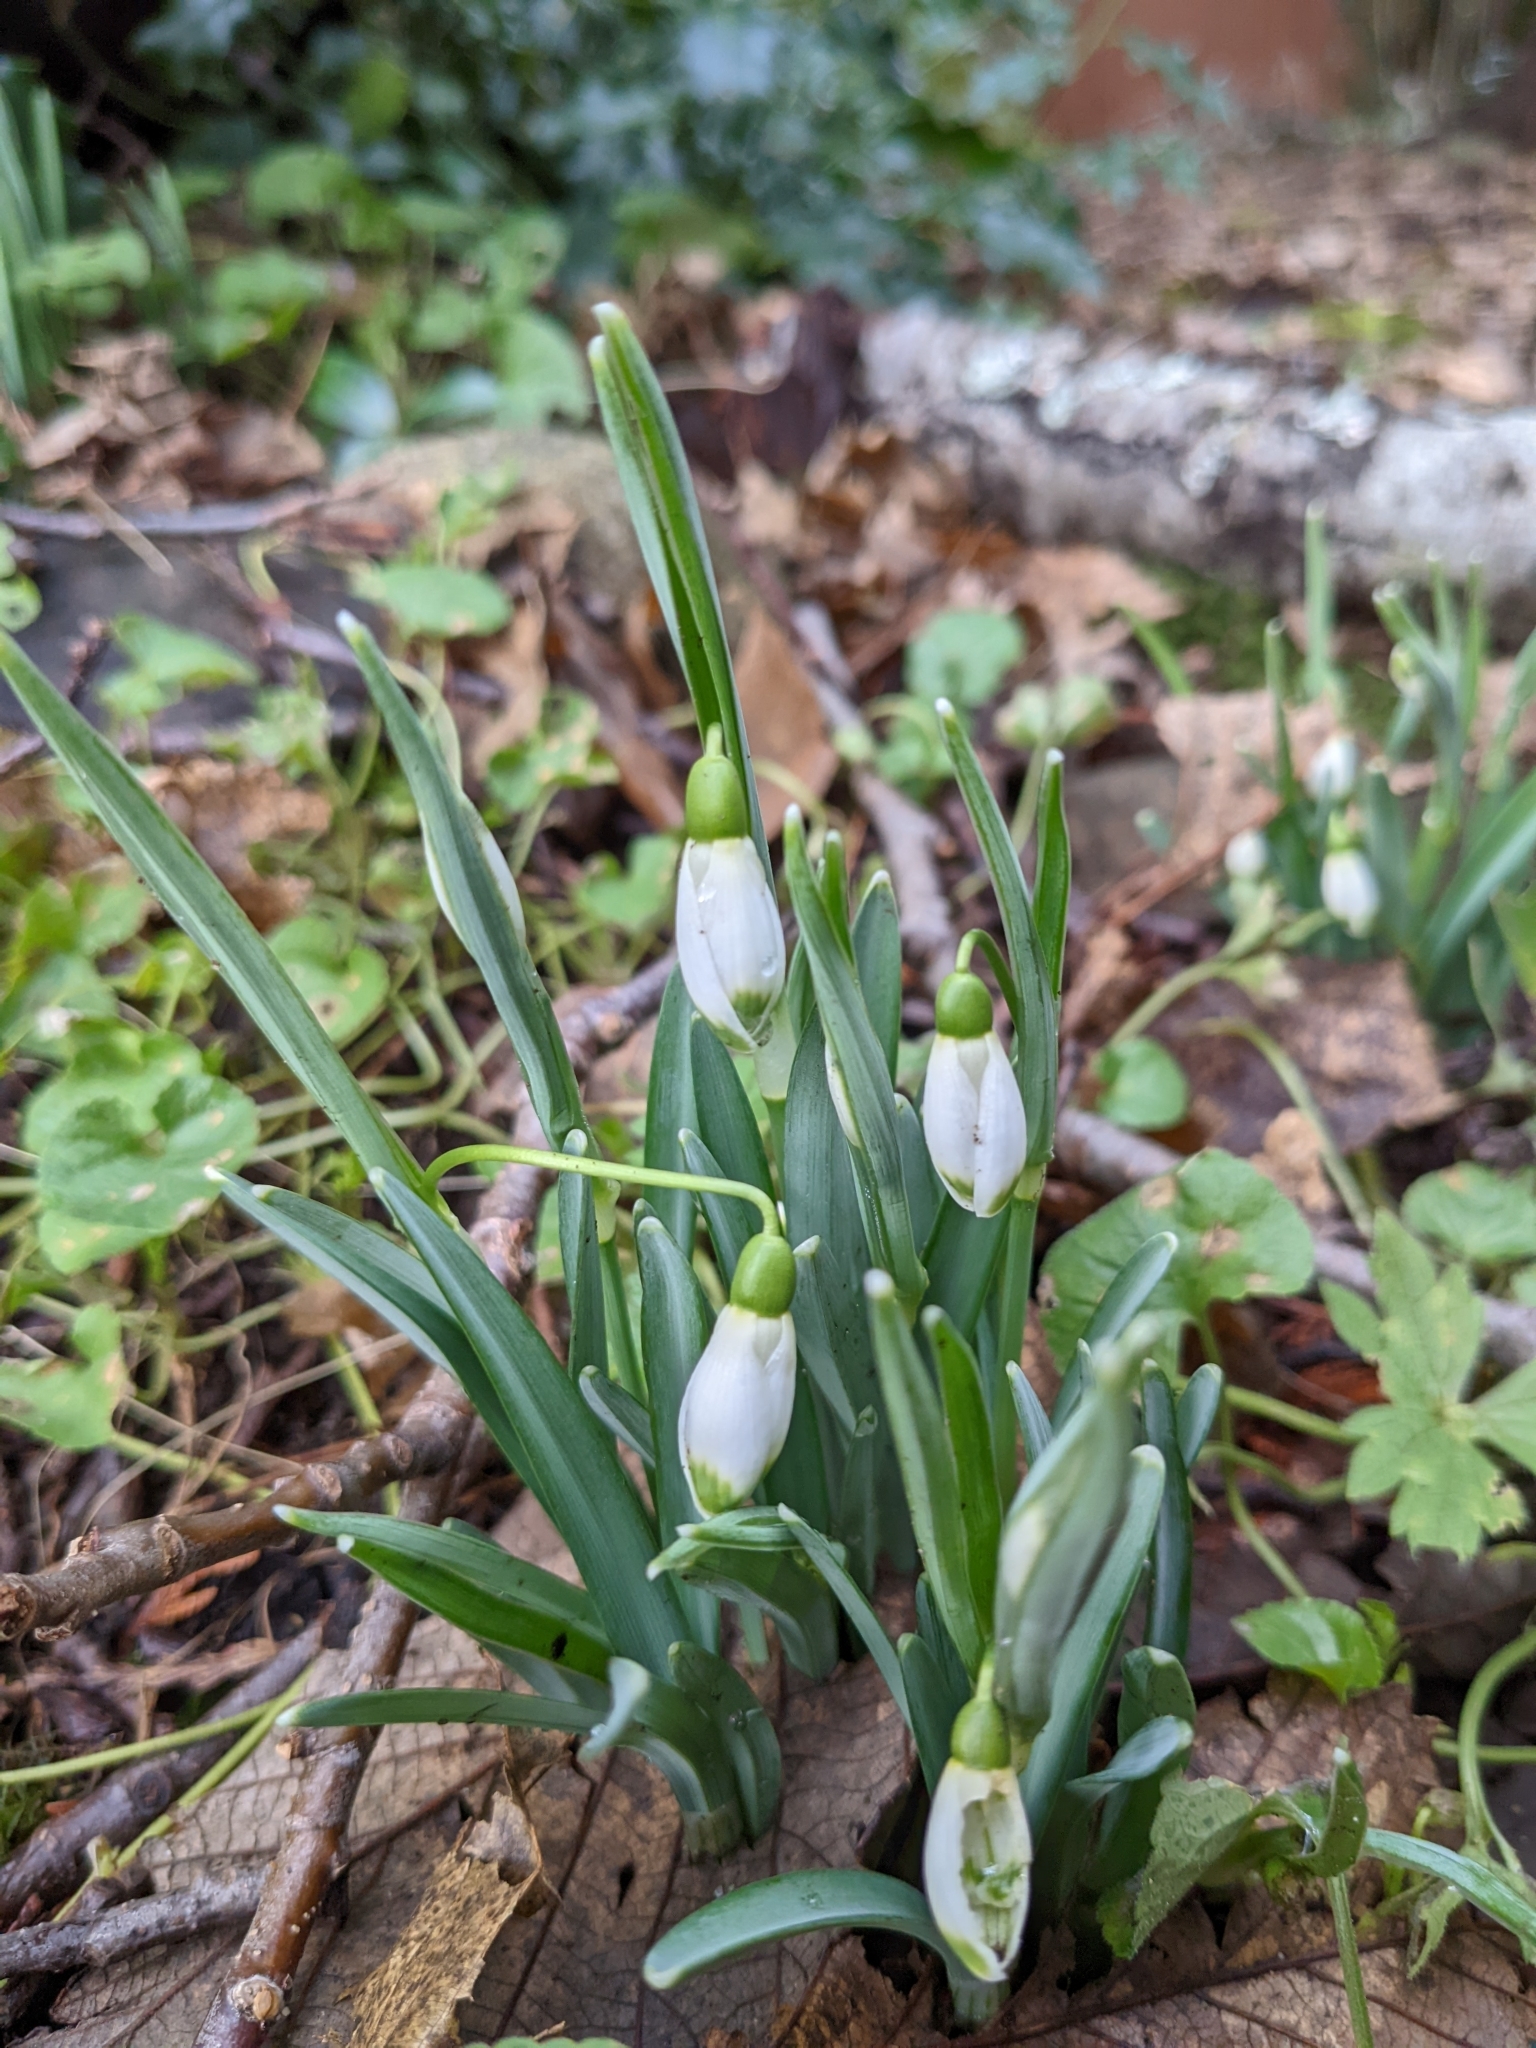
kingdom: Plantae
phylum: Tracheophyta
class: Liliopsida
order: Asparagales
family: Amaryllidaceae
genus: Galanthus
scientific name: Galanthus nivalis
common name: Snowdrop
